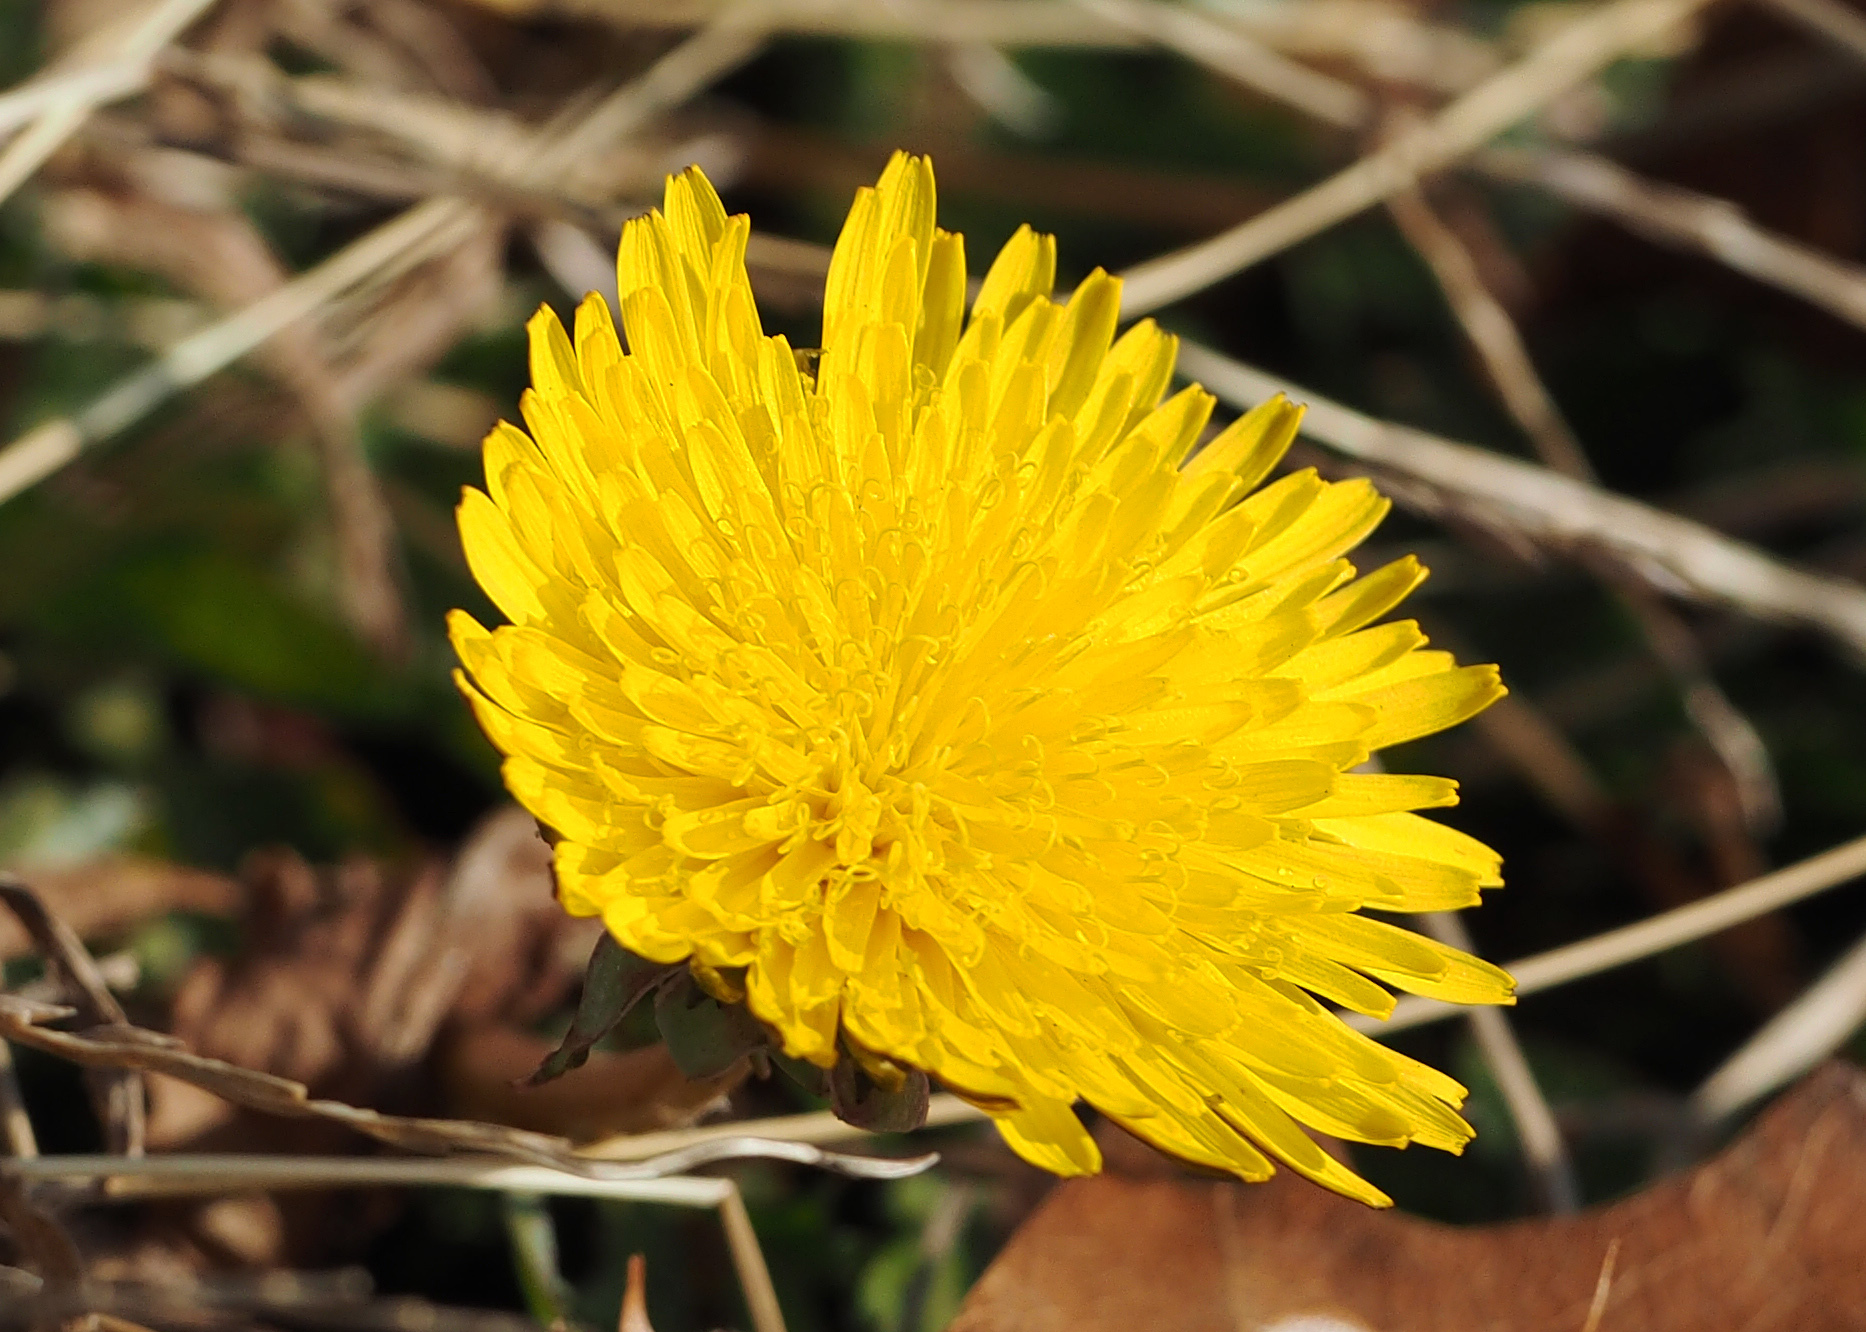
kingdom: Plantae
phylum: Tracheophyta
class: Magnoliopsida
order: Asterales
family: Asteraceae
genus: Taraxacum
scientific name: Taraxacum officinale
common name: Common dandelion
